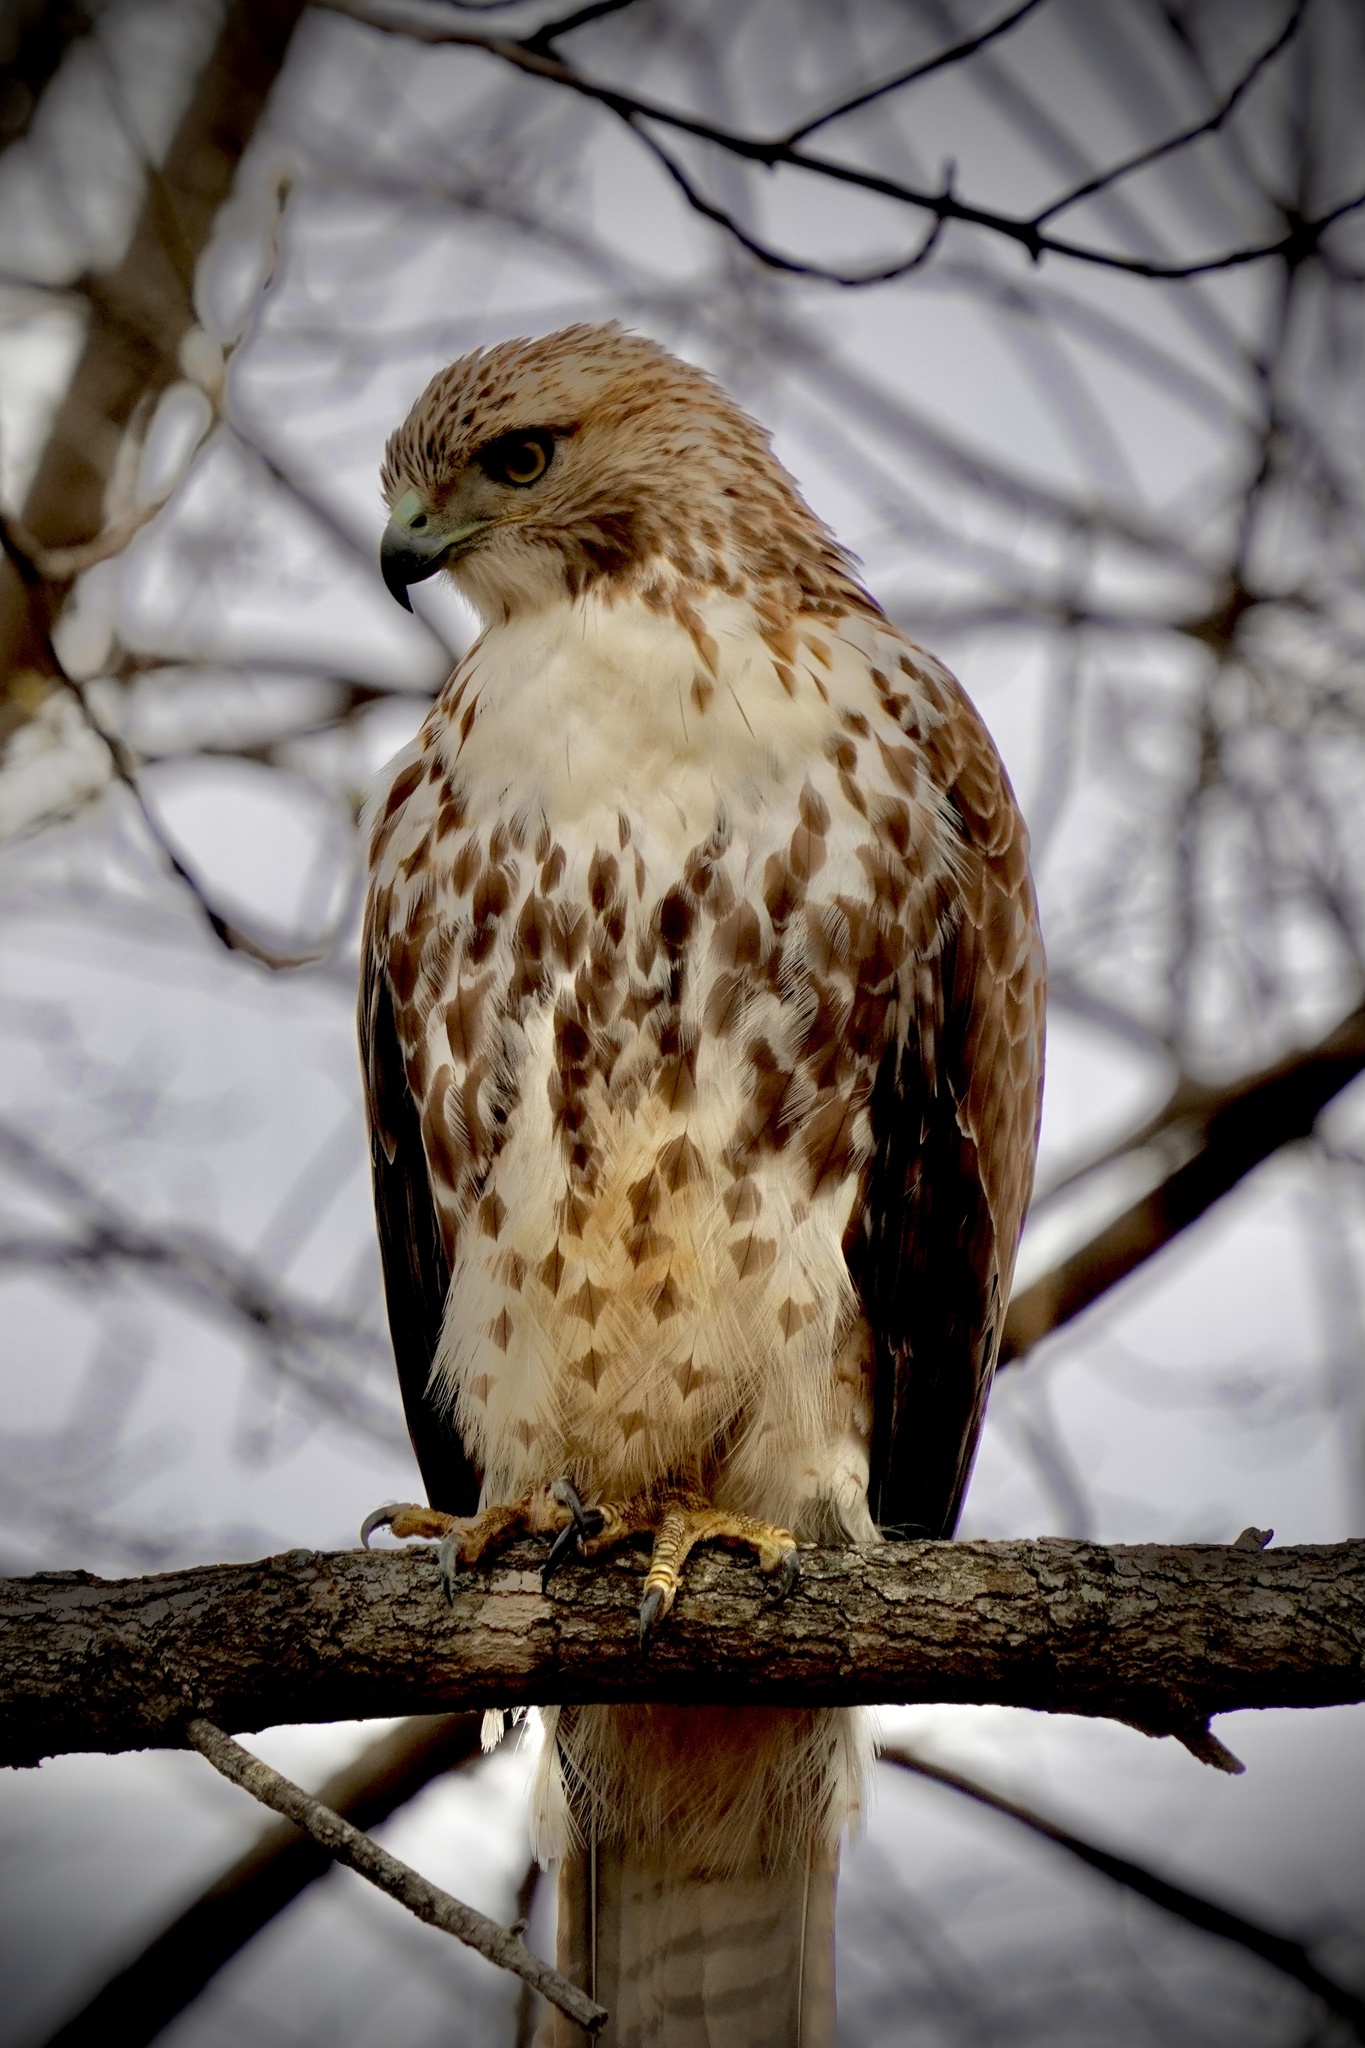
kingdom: Animalia
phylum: Chordata
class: Aves
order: Accipitriformes
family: Accipitridae
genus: Buteo
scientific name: Buteo jamaicensis
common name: Red-tailed hawk
